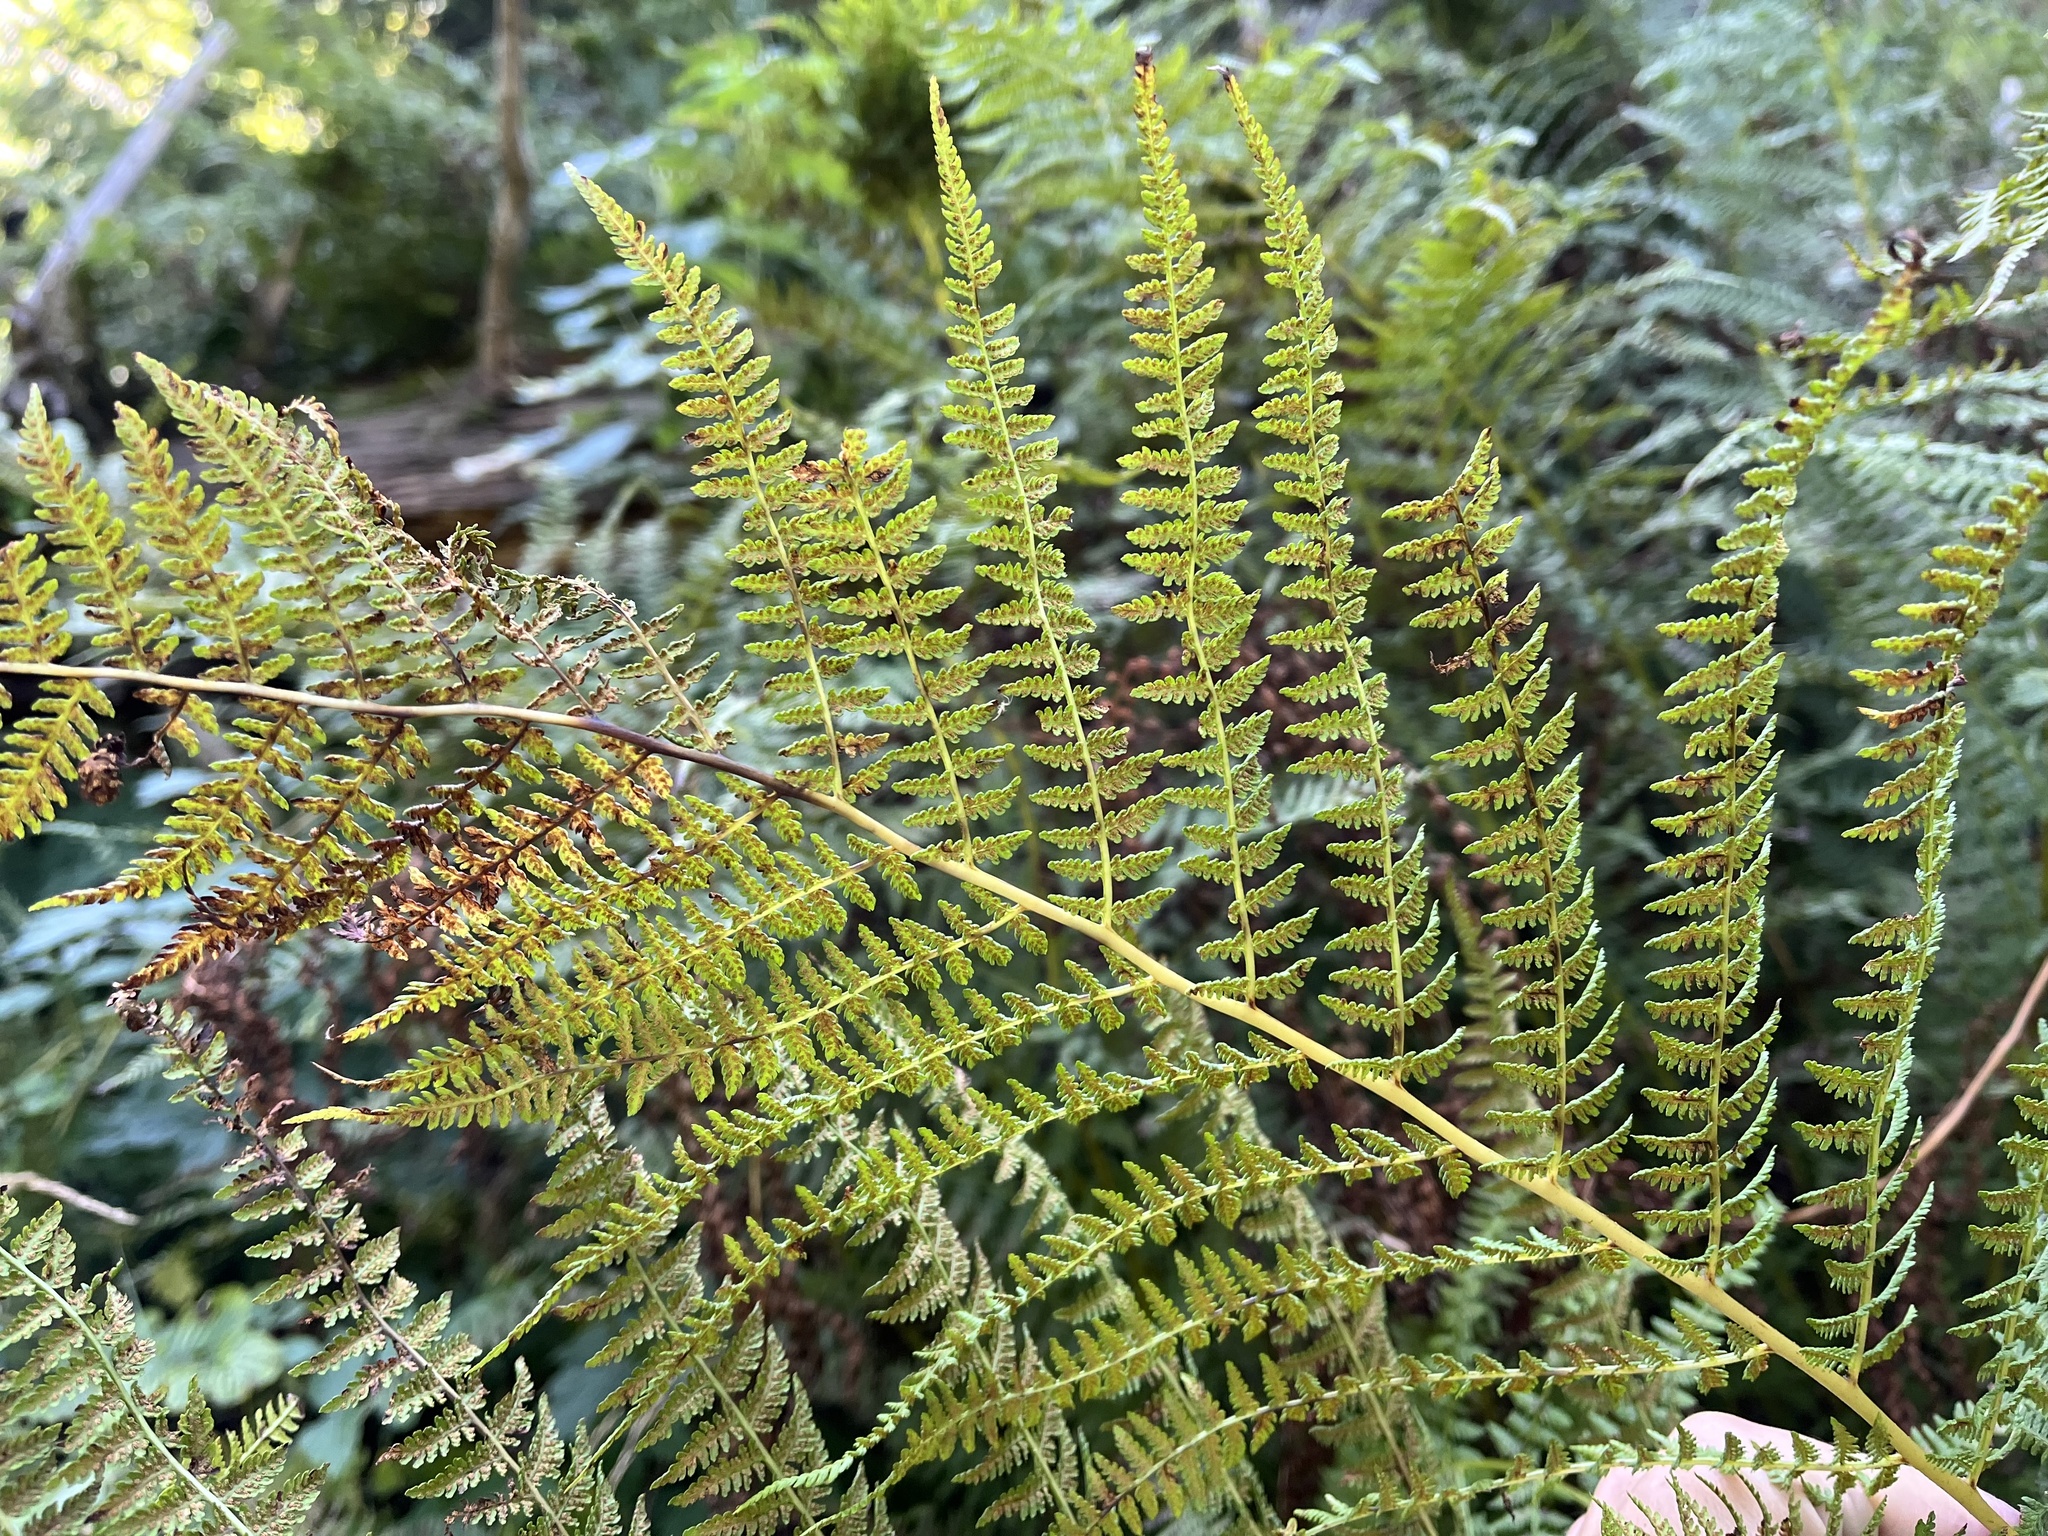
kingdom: Plantae
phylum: Tracheophyta
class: Polypodiopsida
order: Polypodiales
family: Athyriaceae
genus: Pseudathyrium
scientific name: Pseudathyrium alpestre
